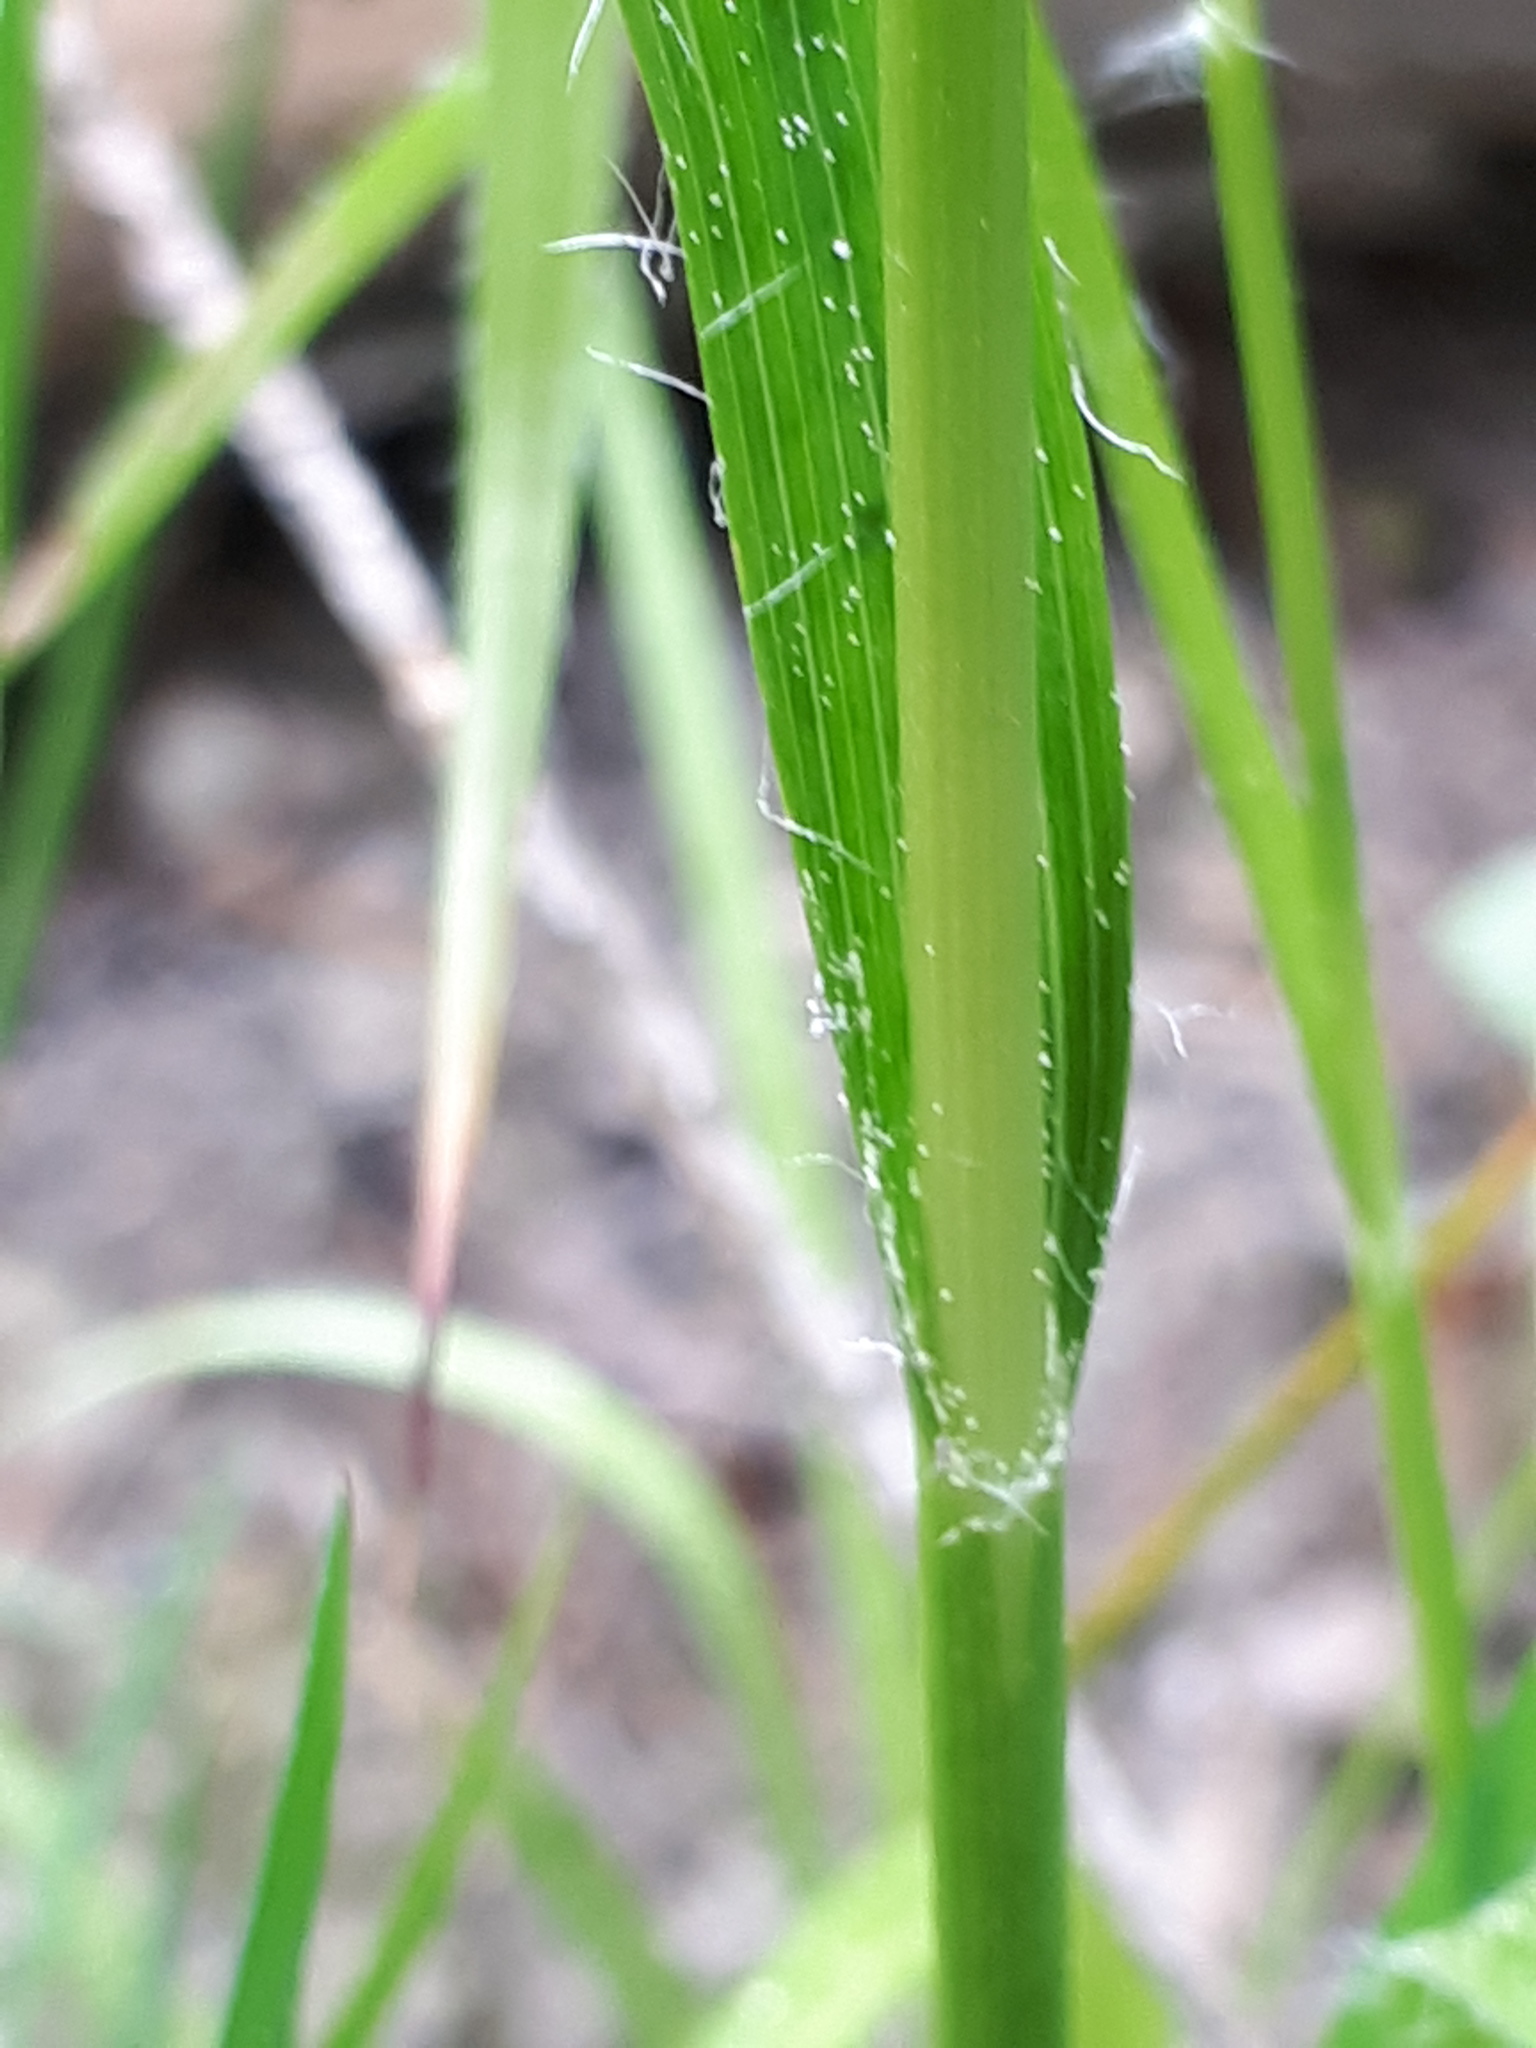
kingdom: Plantae
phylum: Tracheophyta
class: Liliopsida
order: Poales
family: Juncaceae
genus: Luzula
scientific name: Luzula luzuloides
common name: White wood-rush
